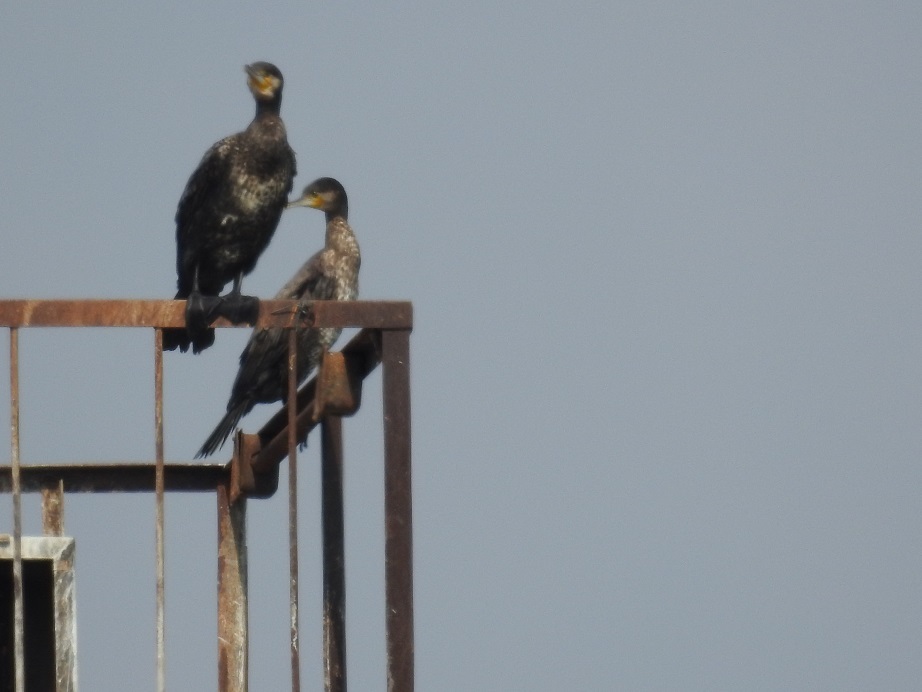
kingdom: Animalia
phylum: Chordata
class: Aves
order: Suliformes
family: Phalacrocoracidae
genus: Phalacrocorax
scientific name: Phalacrocorax carbo
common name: Great cormorant
